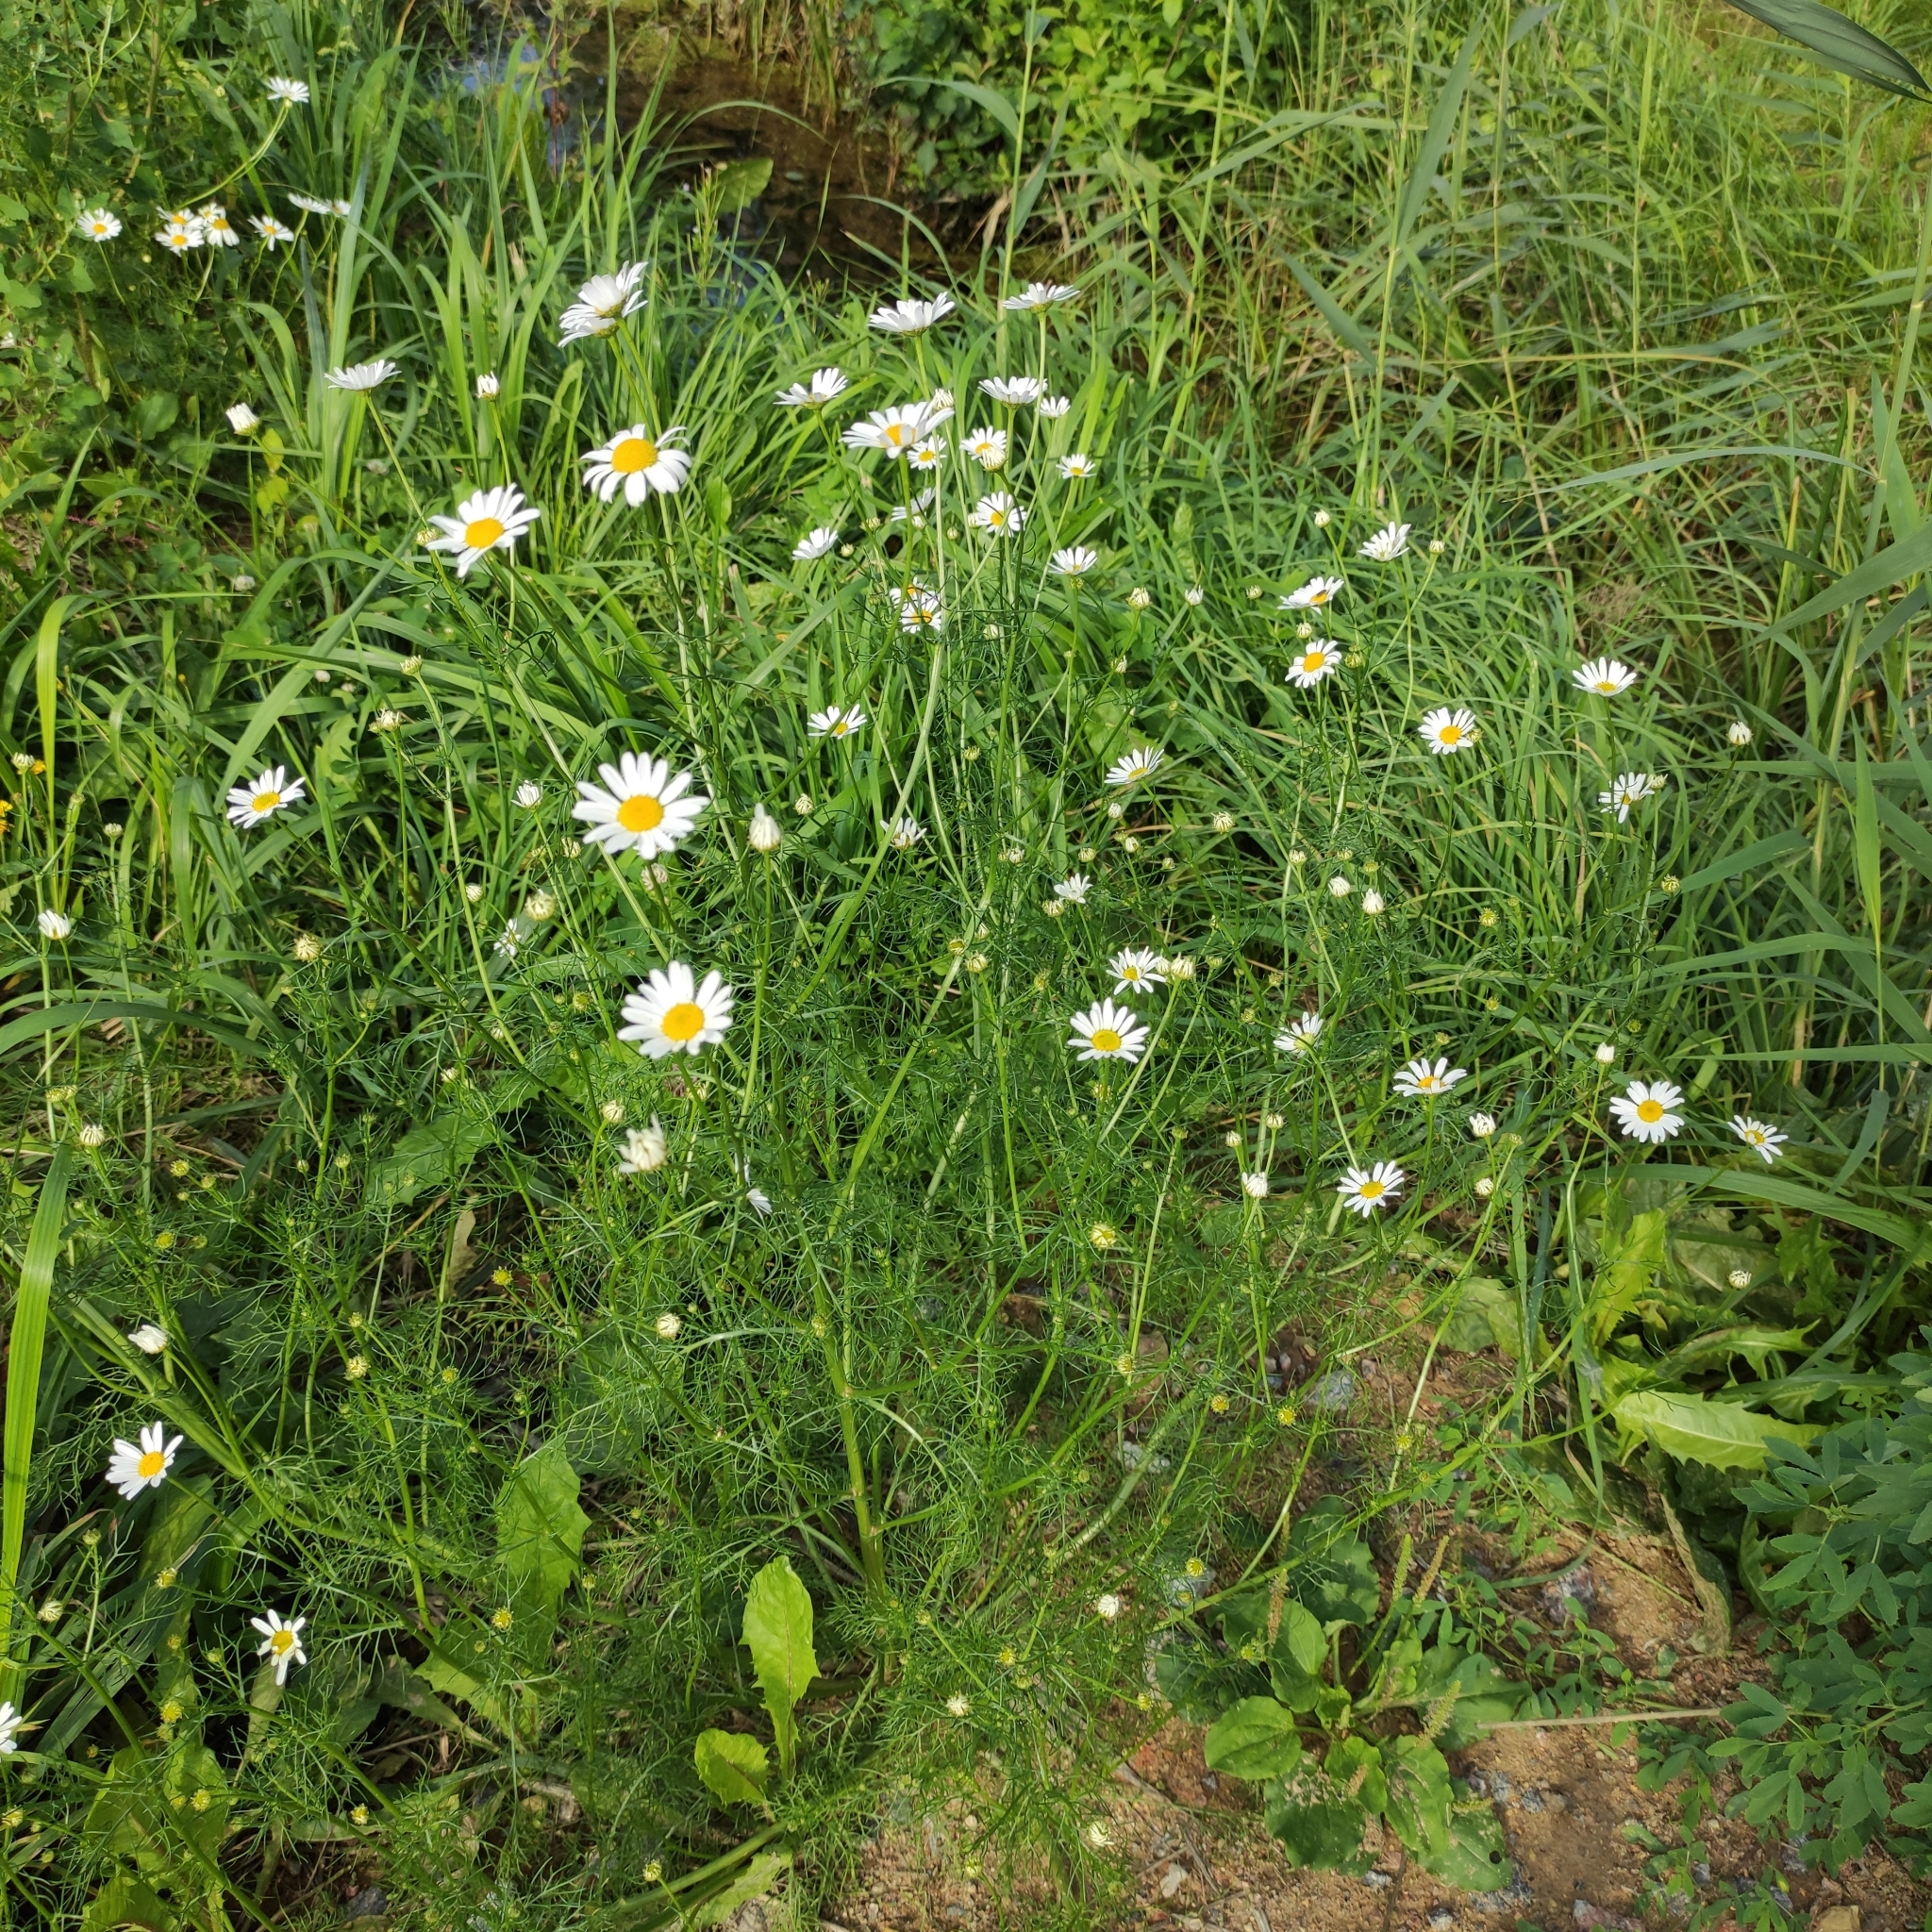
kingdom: Plantae
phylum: Tracheophyta
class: Magnoliopsida
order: Asterales
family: Asteraceae
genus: Tripleurospermum
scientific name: Tripleurospermum inodorum
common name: Scentless mayweed
